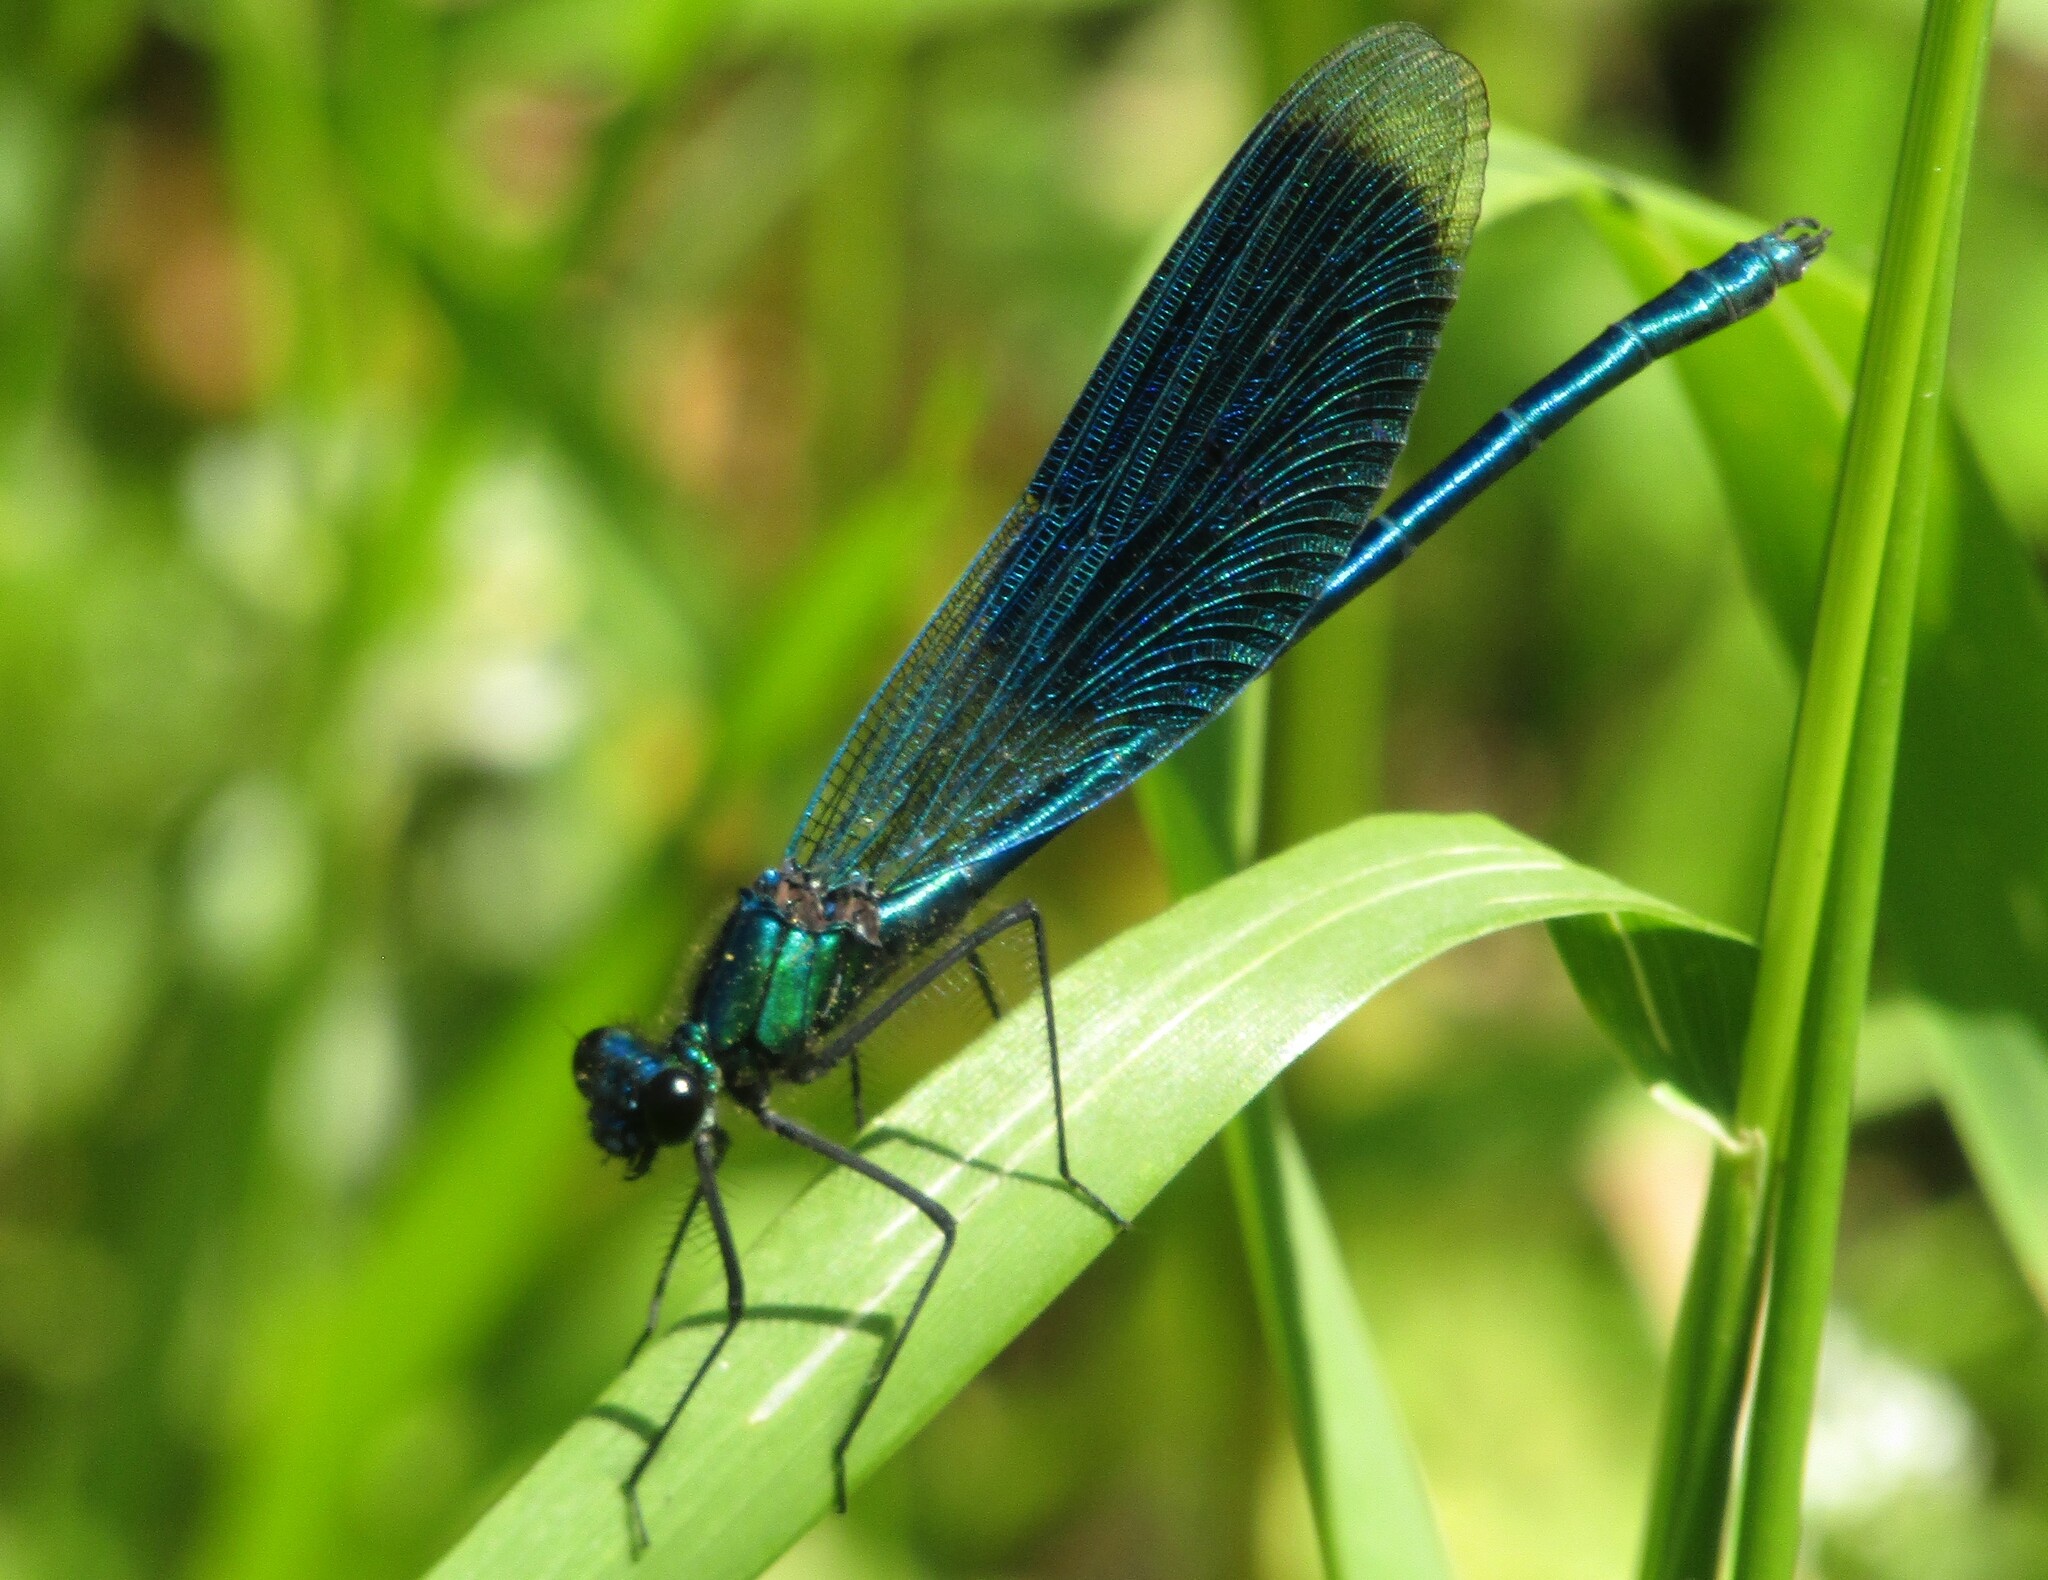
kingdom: Animalia
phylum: Arthropoda
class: Insecta
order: Odonata
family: Calopterygidae
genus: Calopteryx
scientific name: Calopteryx splendens
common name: Banded demoiselle
